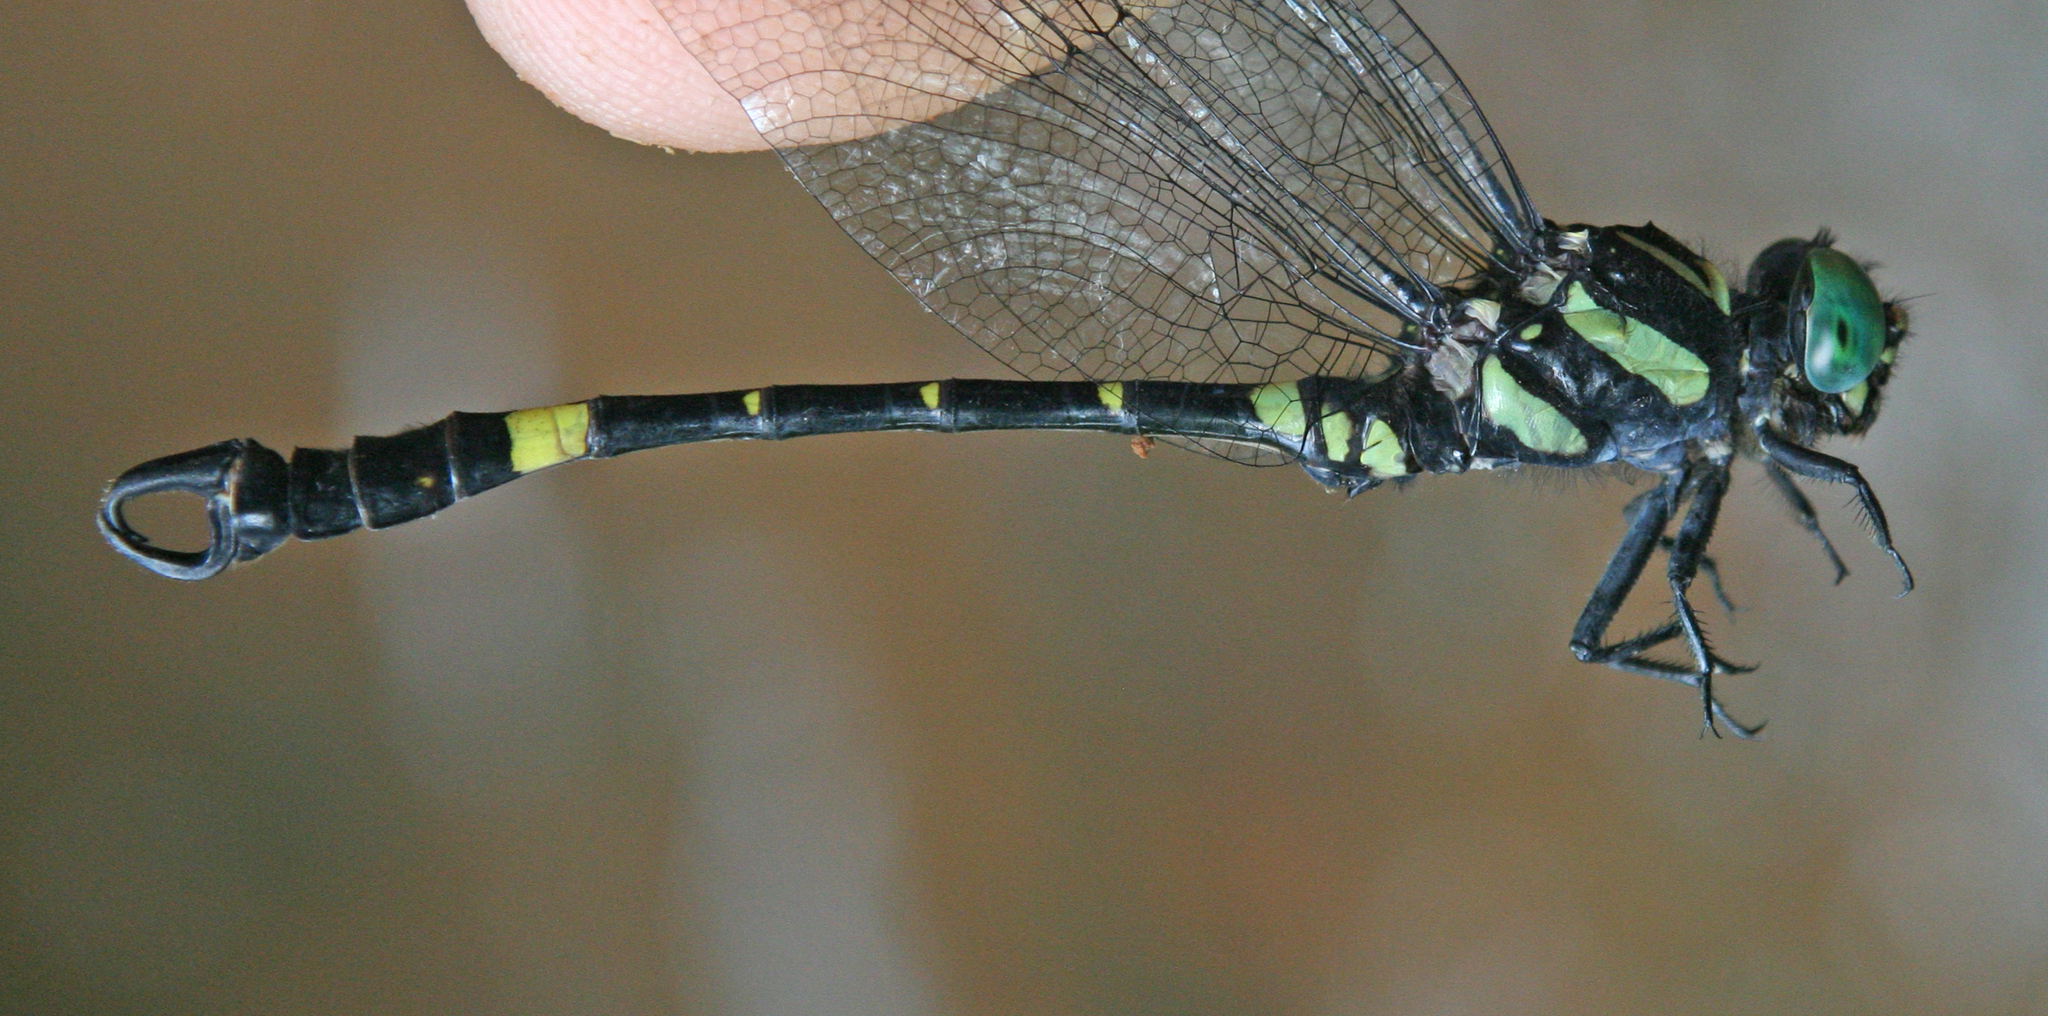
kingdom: Animalia
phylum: Arthropoda
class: Insecta
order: Odonata
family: Gomphidae
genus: Lamelligomphus
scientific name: Lamelligomphus castor
